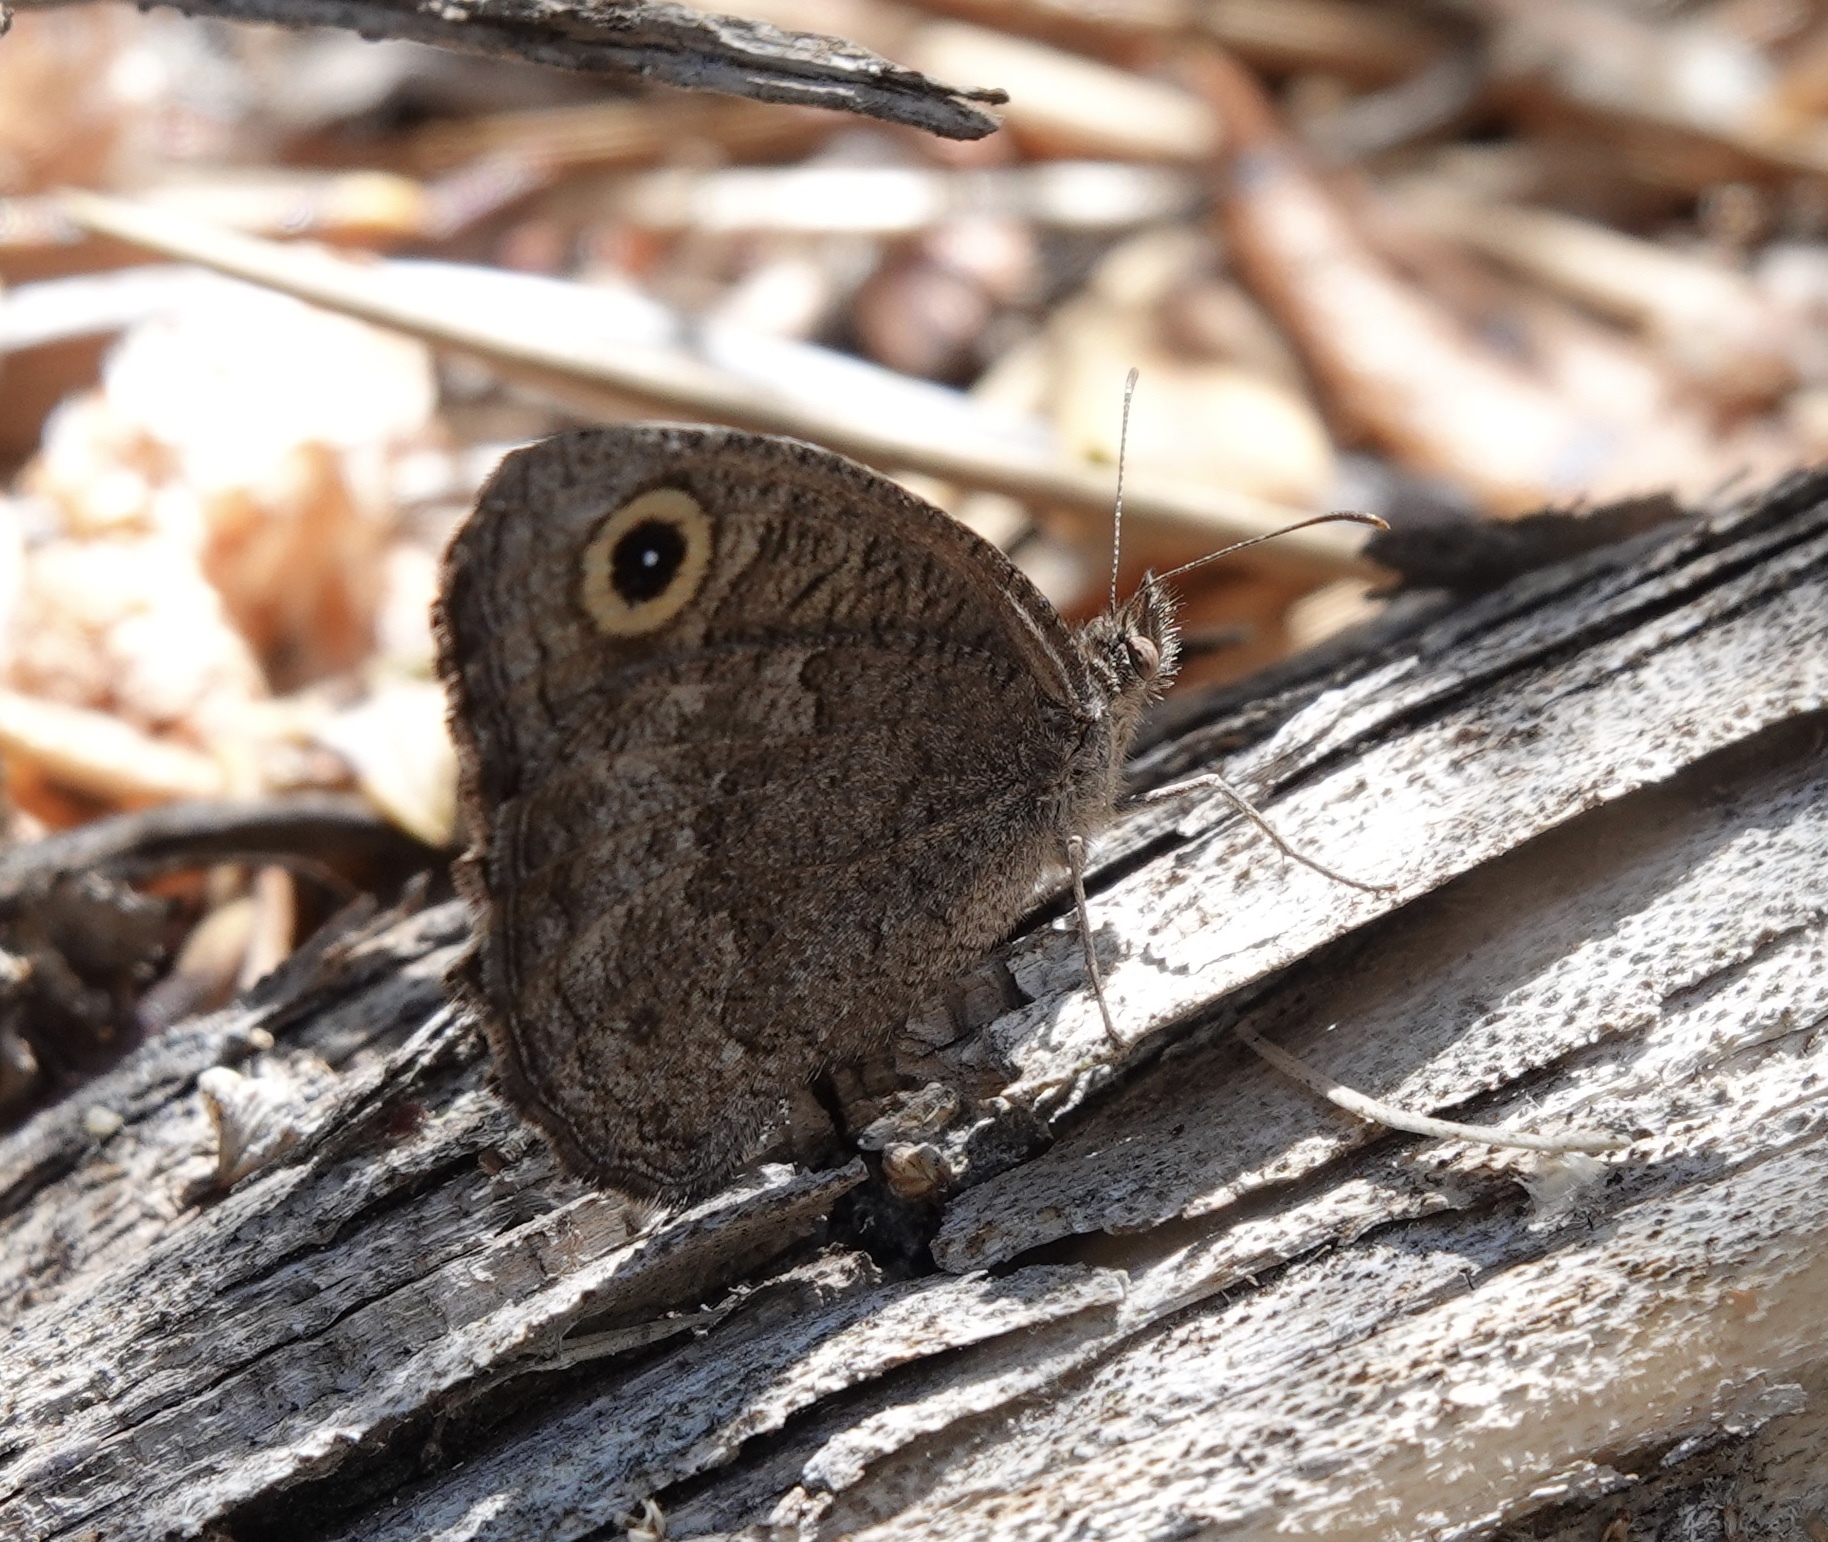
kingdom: Animalia
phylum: Arthropoda
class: Insecta
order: Lepidoptera
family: Nymphalidae
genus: Cercyonis
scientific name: Cercyonis sthenele
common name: Great basin wood-nymph
